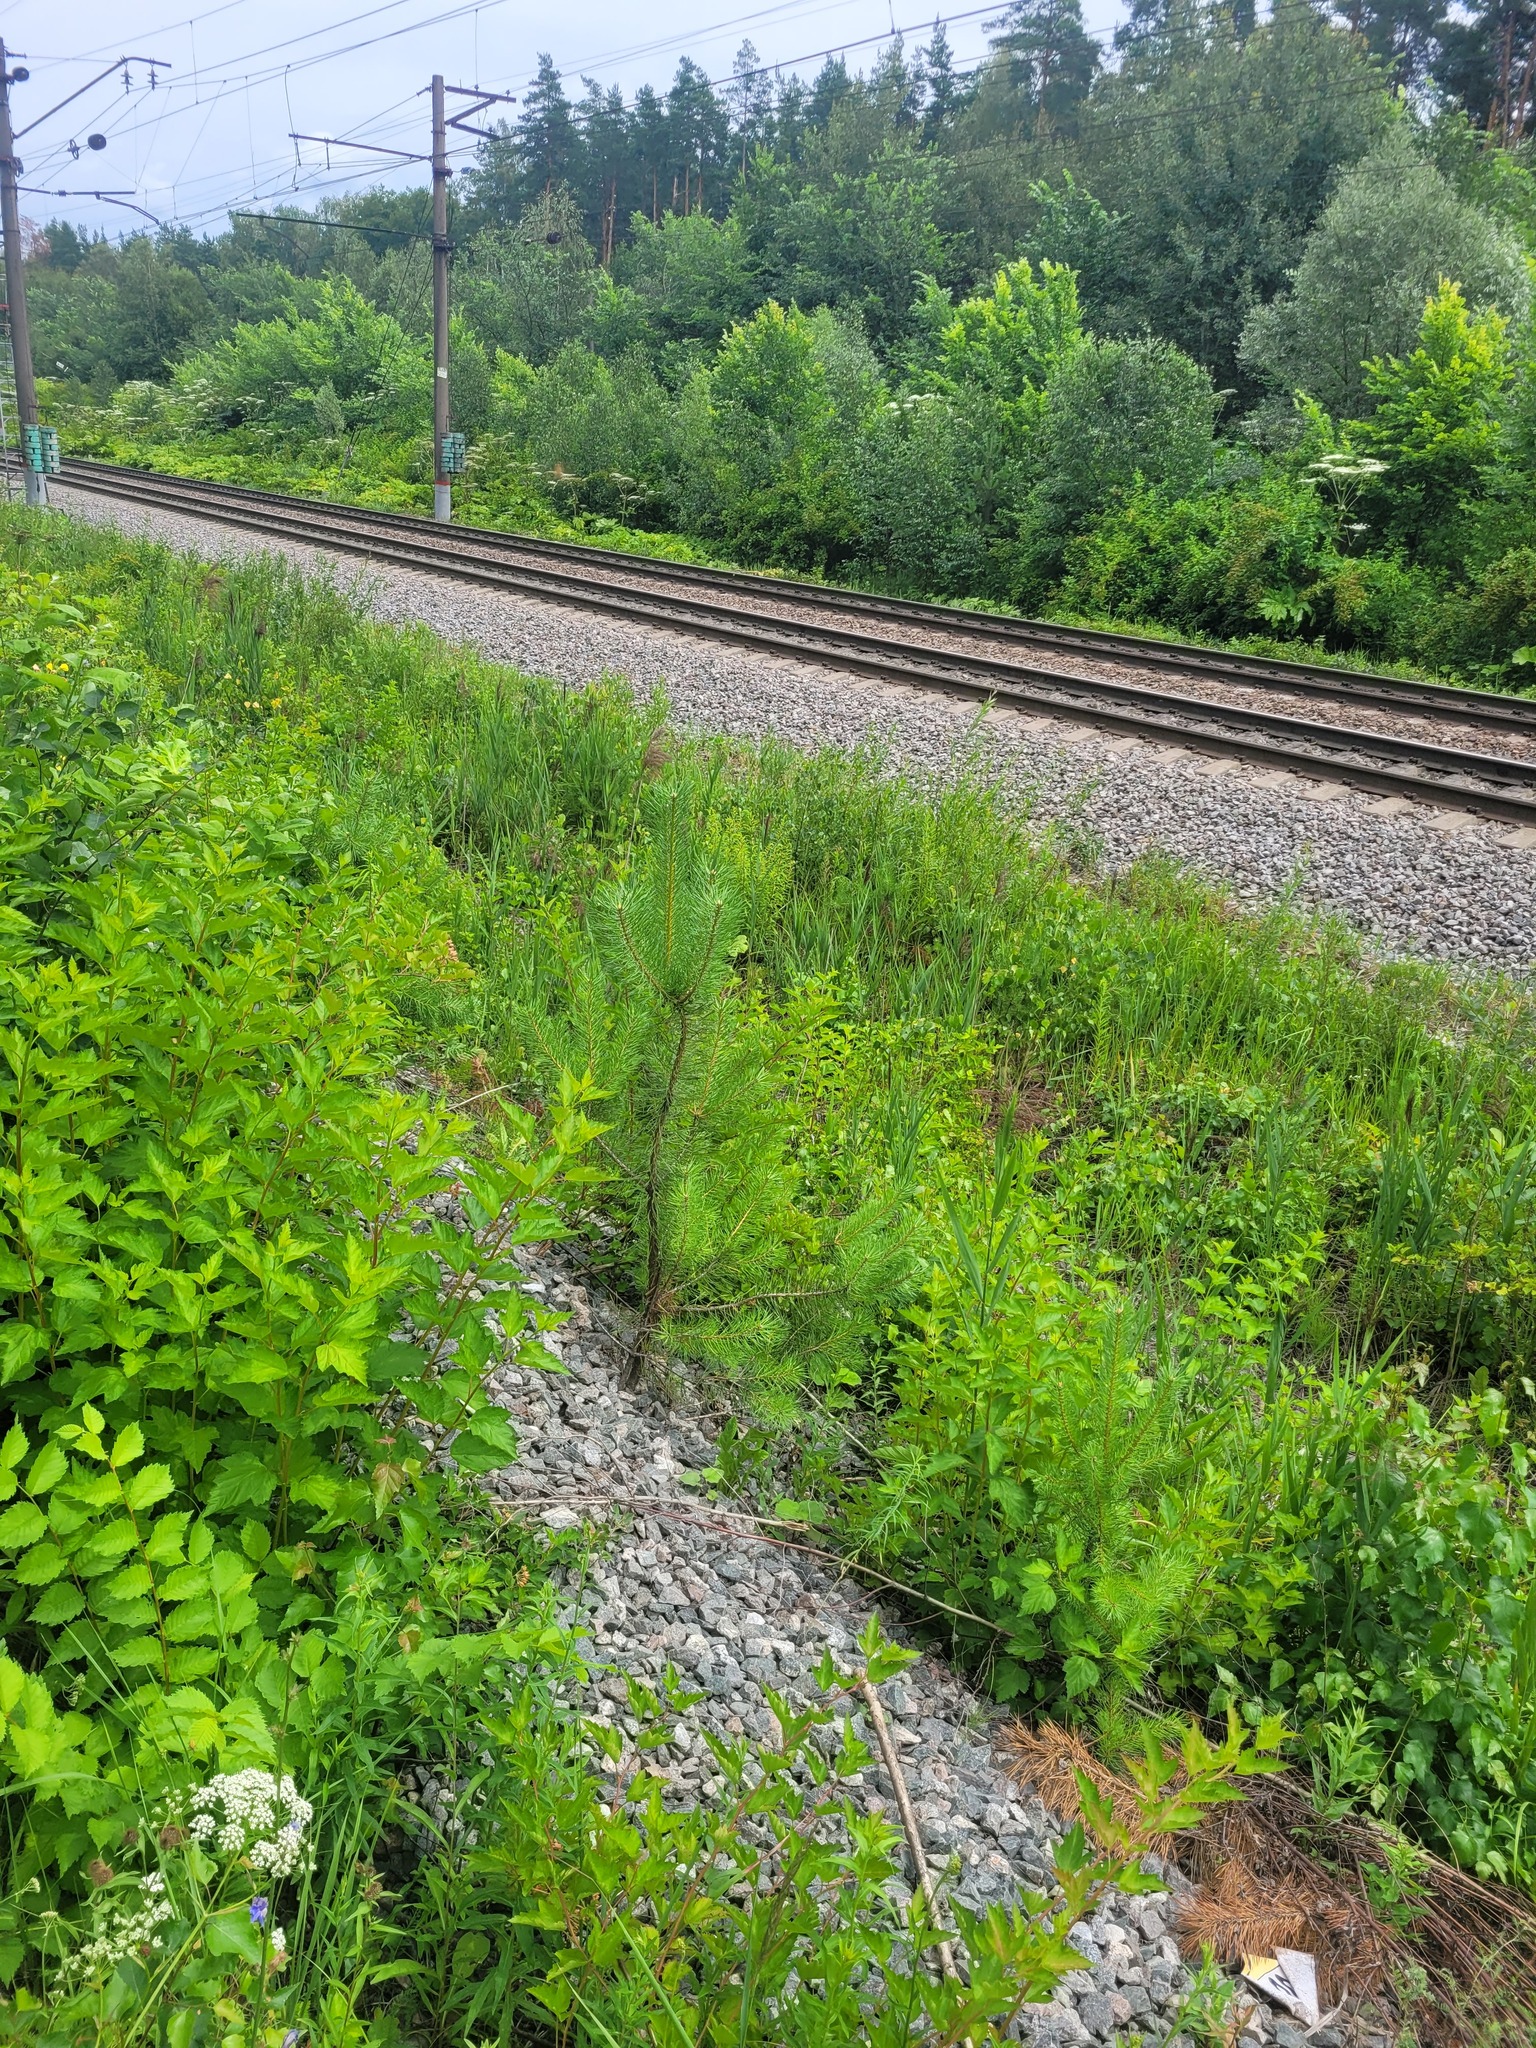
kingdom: Plantae
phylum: Tracheophyta
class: Pinopsida
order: Pinales
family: Pinaceae
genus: Pinus
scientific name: Pinus sylvestris
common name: Scots pine
